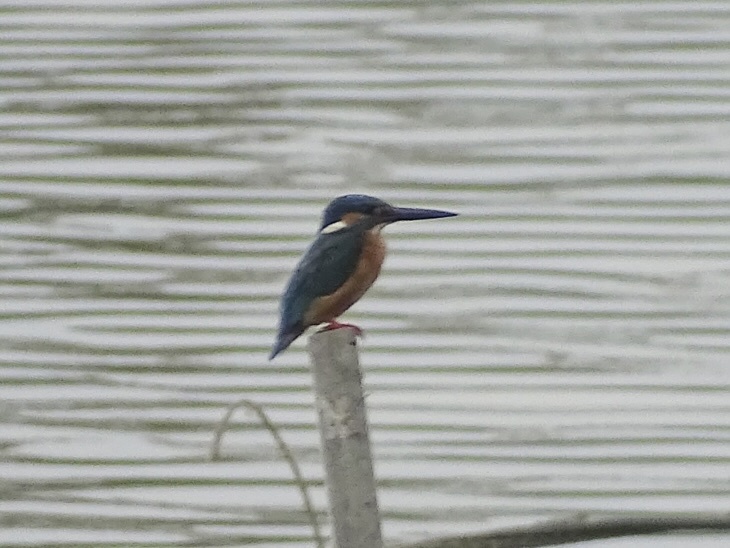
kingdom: Animalia
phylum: Chordata
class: Aves
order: Coraciiformes
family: Alcedinidae
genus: Alcedo
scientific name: Alcedo atthis
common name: Common kingfisher
